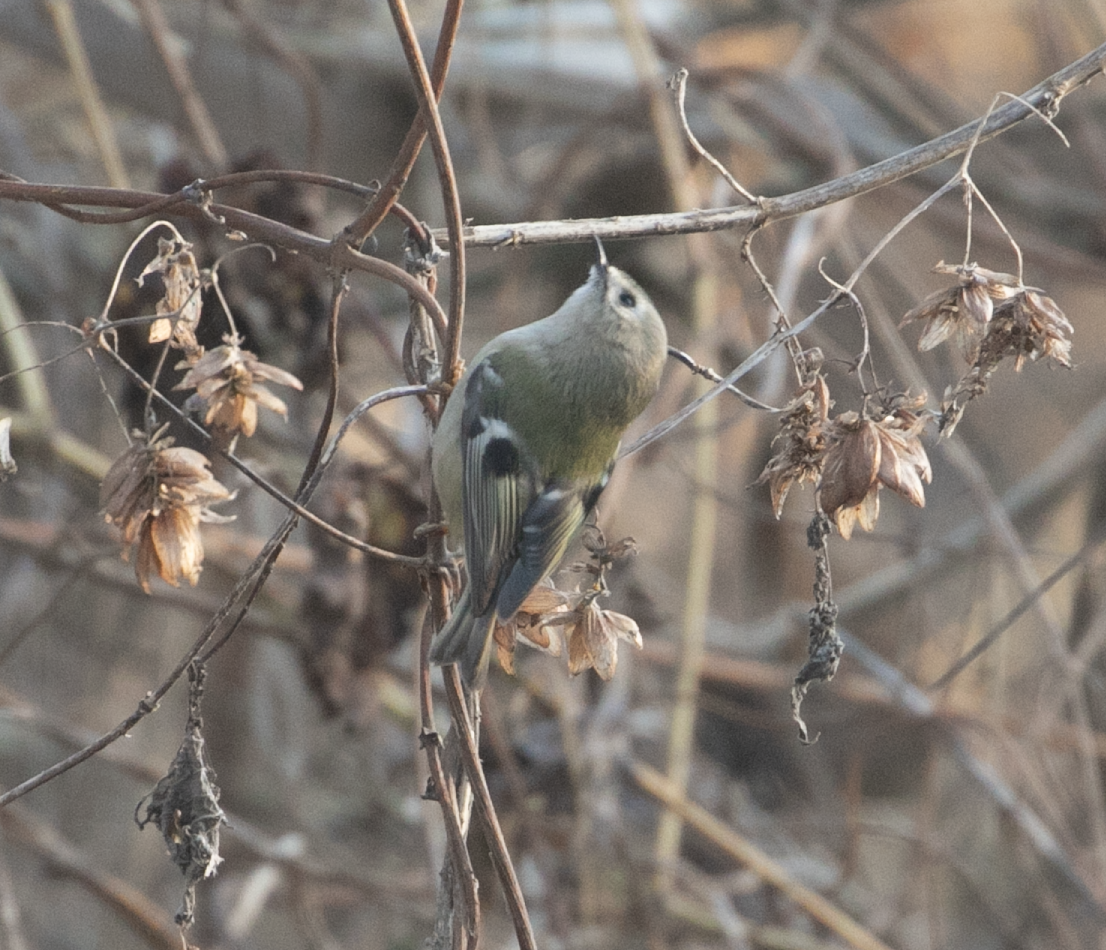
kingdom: Animalia
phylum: Chordata
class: Aves
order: Passeriformes
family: Regulidae
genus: Regulus
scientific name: Regulus regulus
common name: Goldcrest
